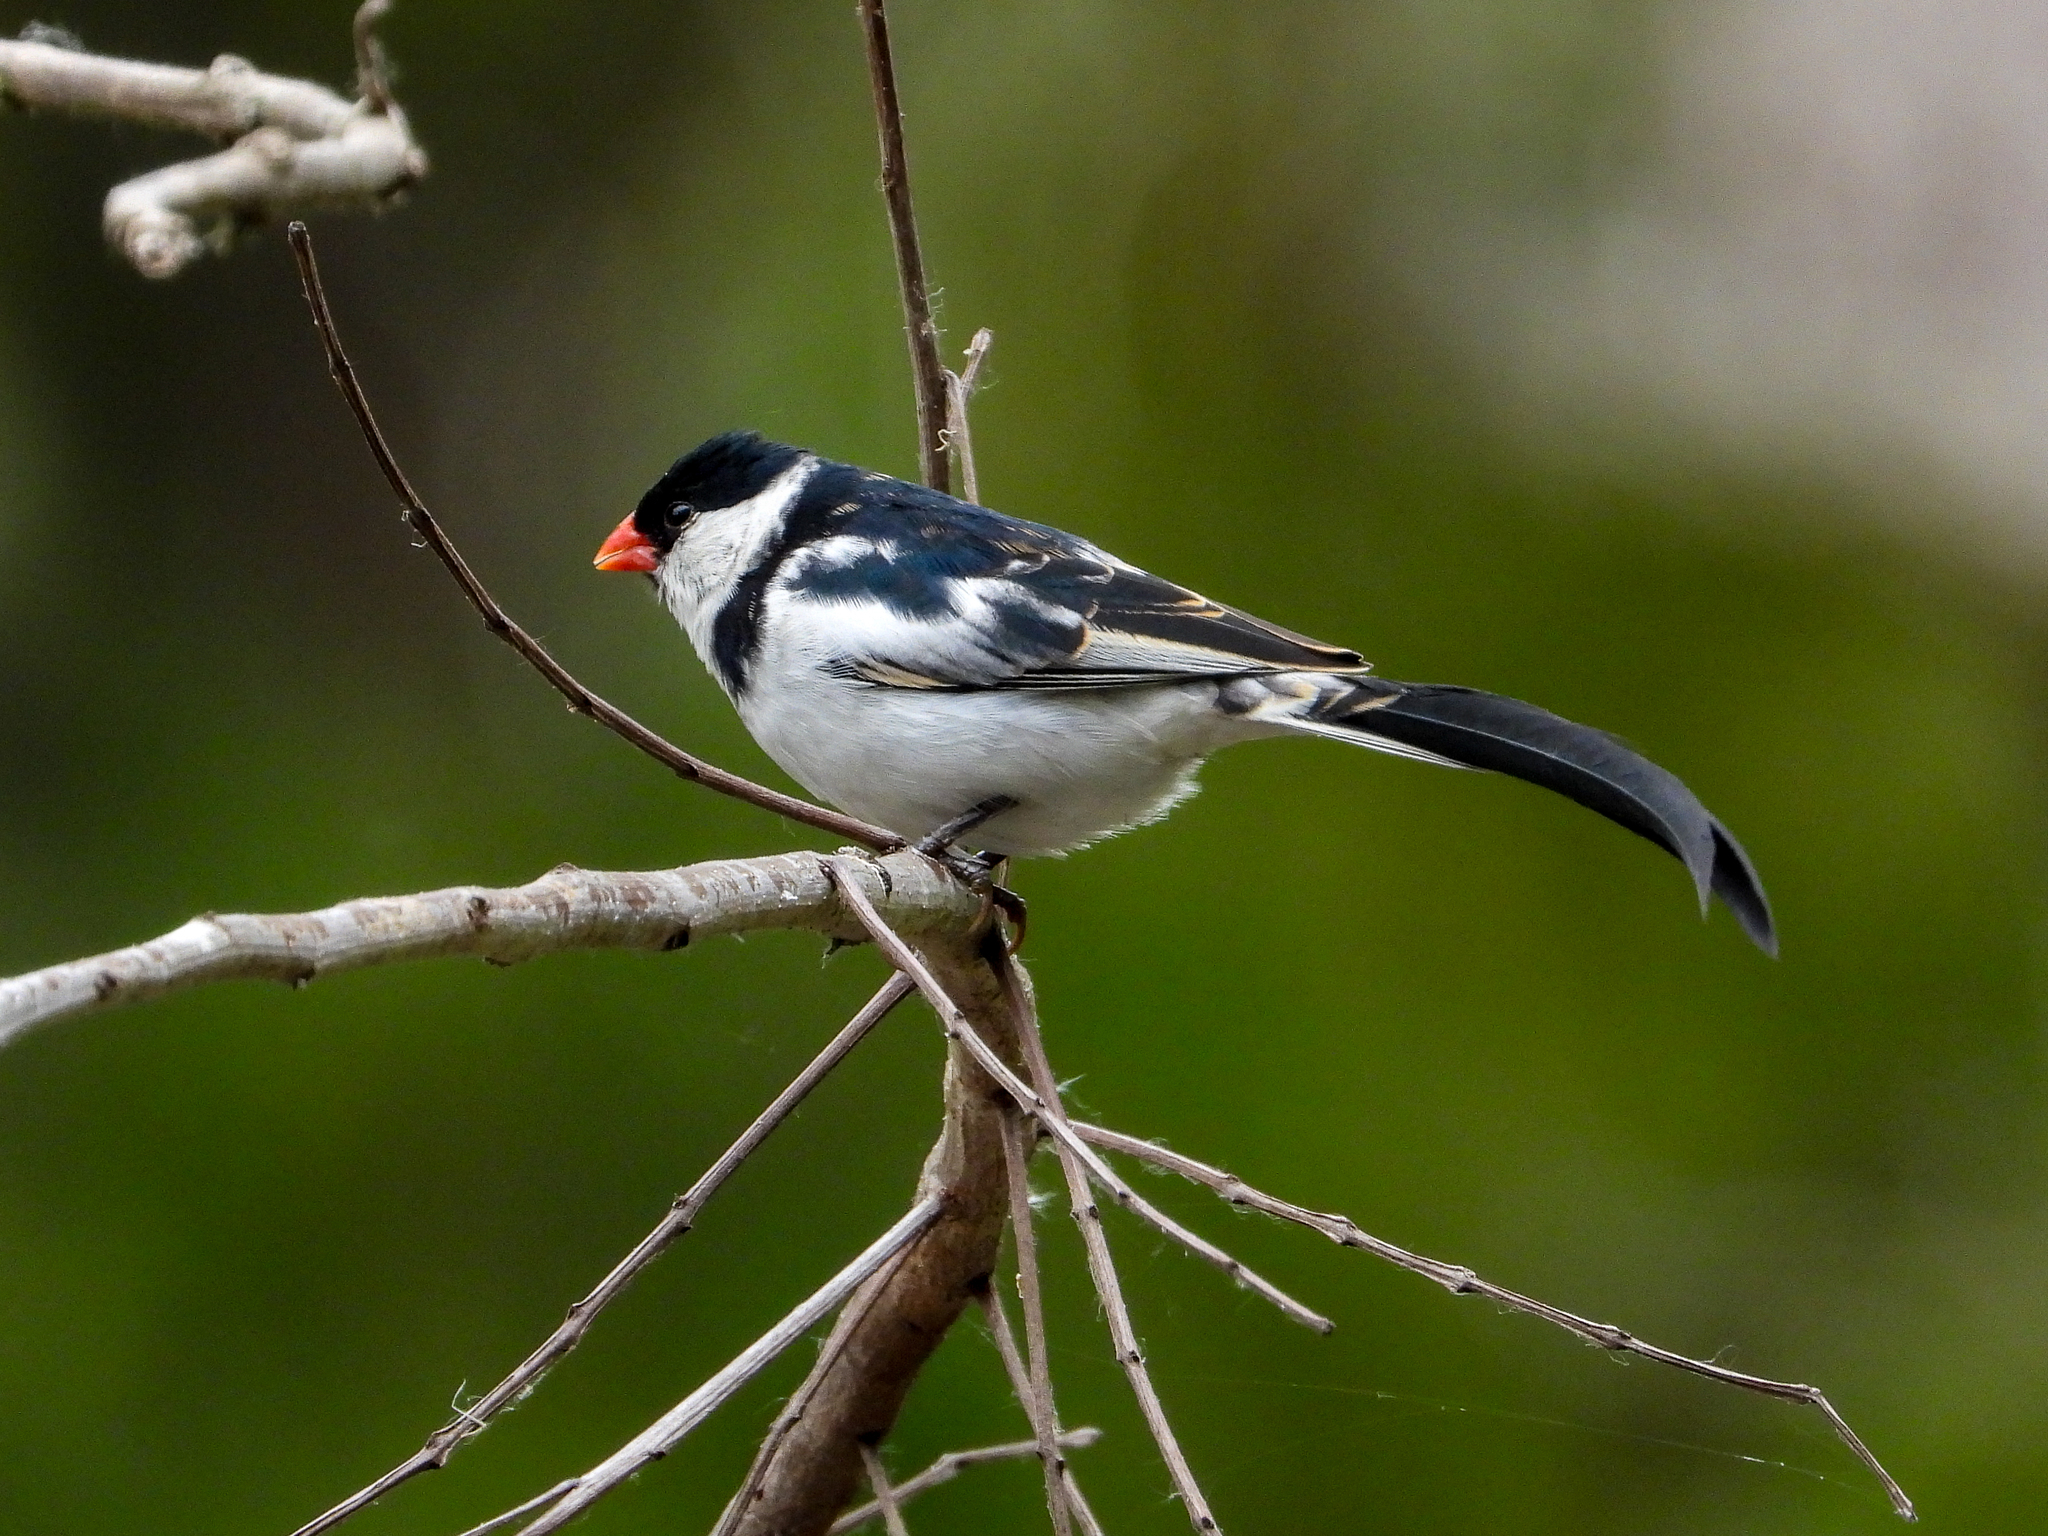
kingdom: Animalia
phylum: Chordata
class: Aves
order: Passeriformes
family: Viduidae
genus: Vidua
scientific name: Vidua macroura
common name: Pin-tailed whydah
